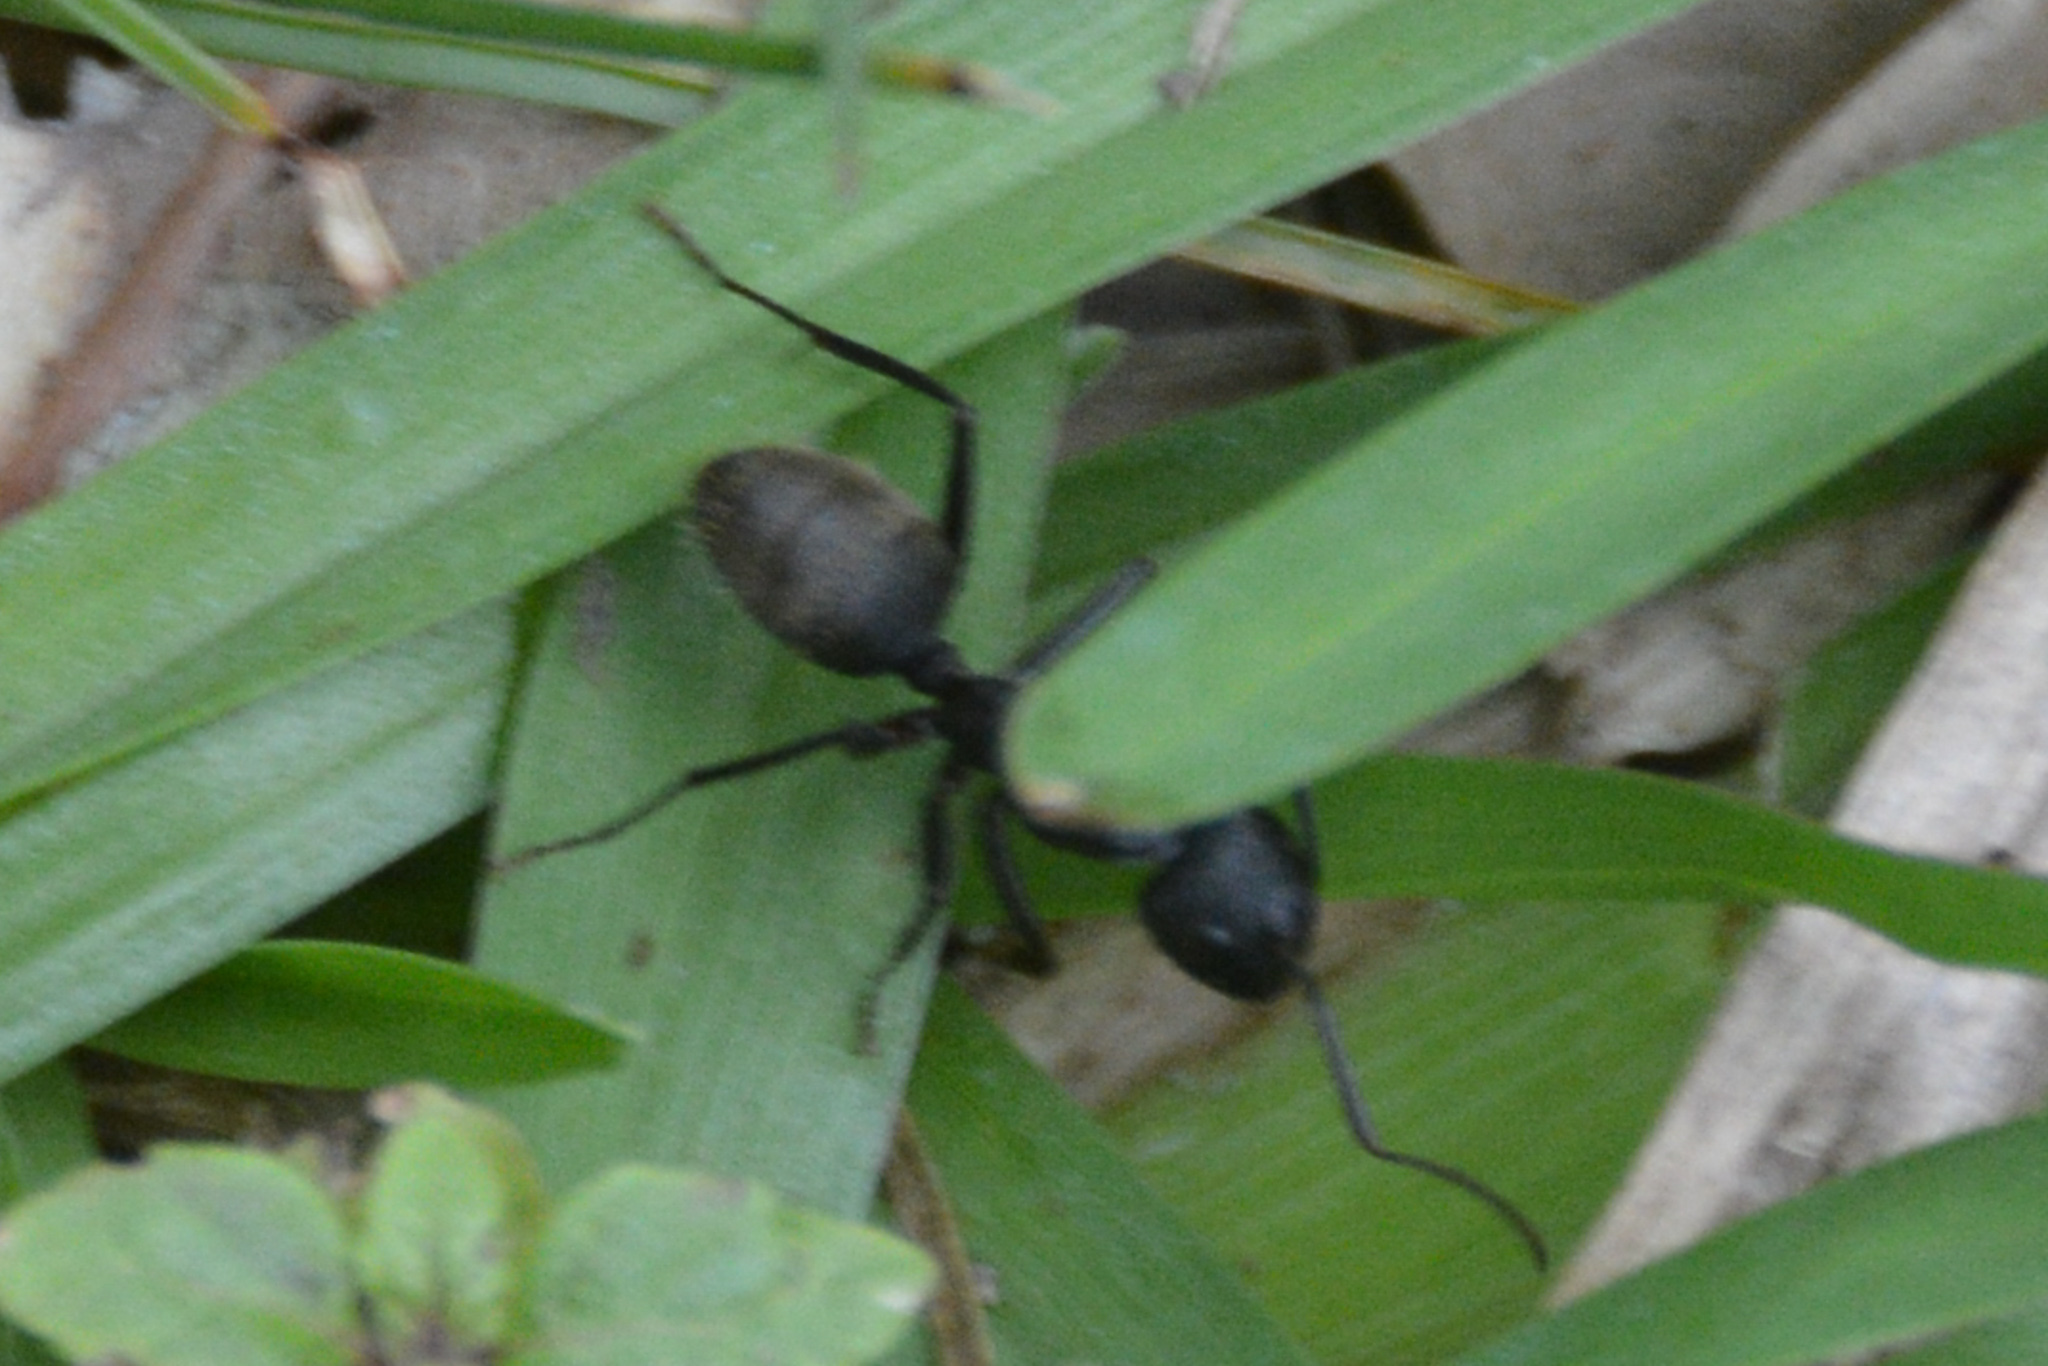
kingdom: Animalia
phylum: Arthropoda
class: Insecta
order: Hymenoptera
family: Formicidae
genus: Camponotus
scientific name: Camponotus pennsylvanicus
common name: Black carpenter ant
